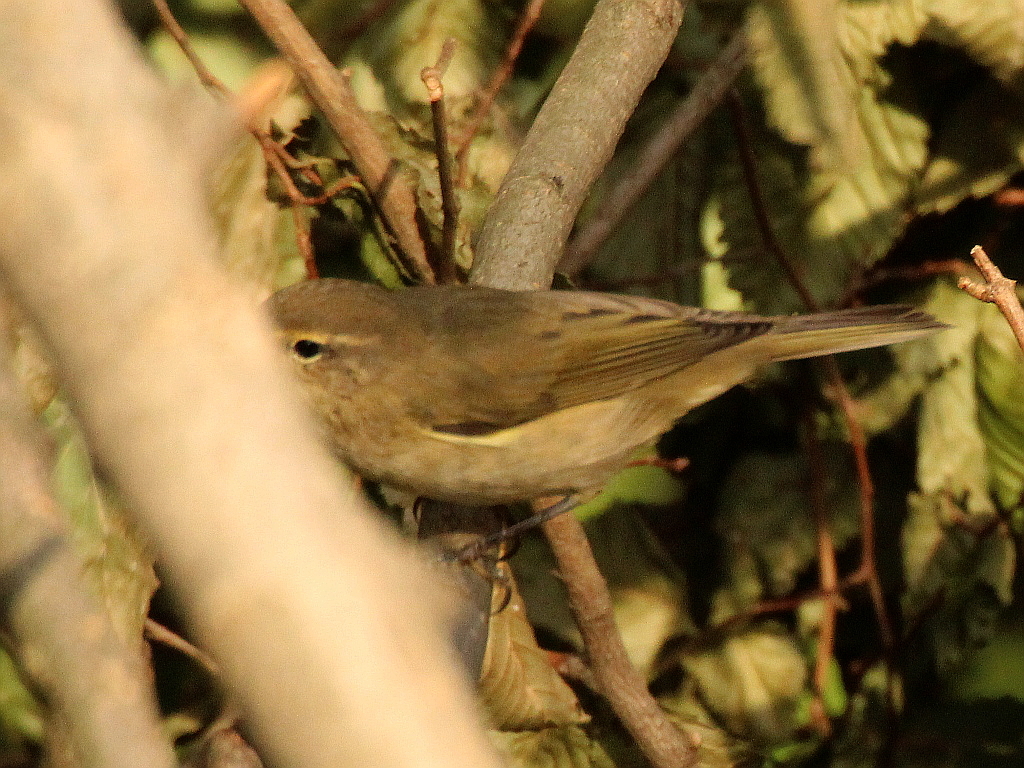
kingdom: Animalia
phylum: Chordata
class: Aves
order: Passeriformes
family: Phylloscopidae
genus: Phylloscopus
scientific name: Phylloscopus collybita
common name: Common chiffchaff
